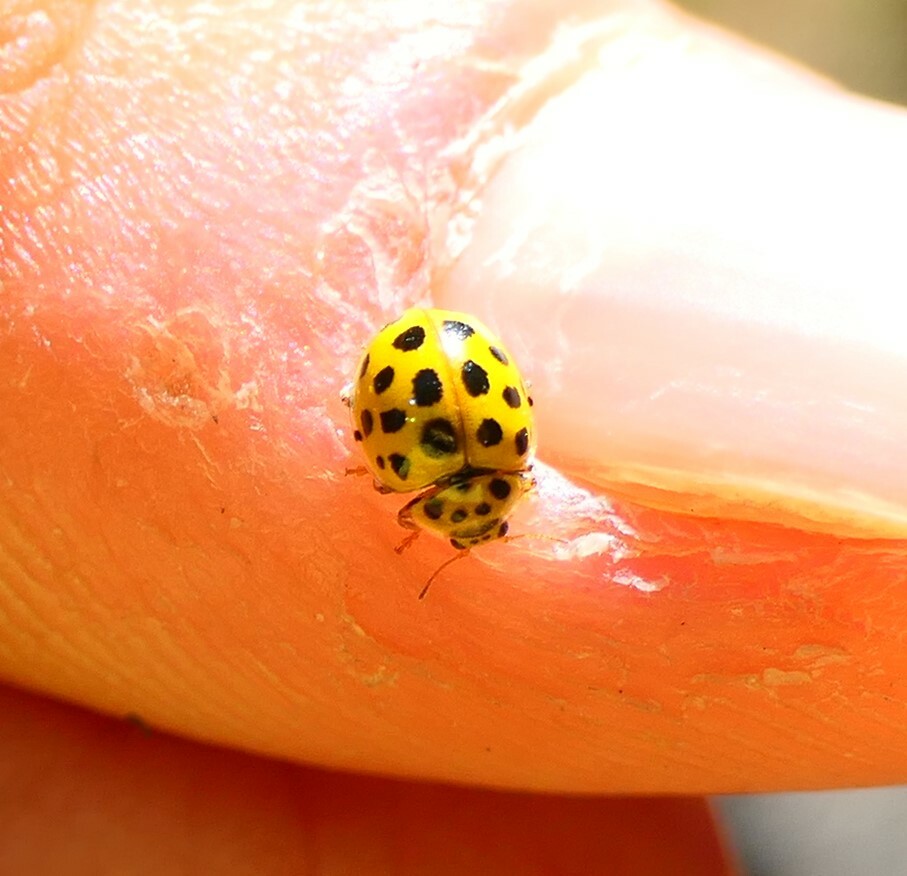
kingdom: Animalia
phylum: Arthropoda
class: Insecta
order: Coleoptera
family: Coccinellidae
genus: Psyllobora
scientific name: Psyllobora vigintiduopunctata
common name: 22-spot ladybird
